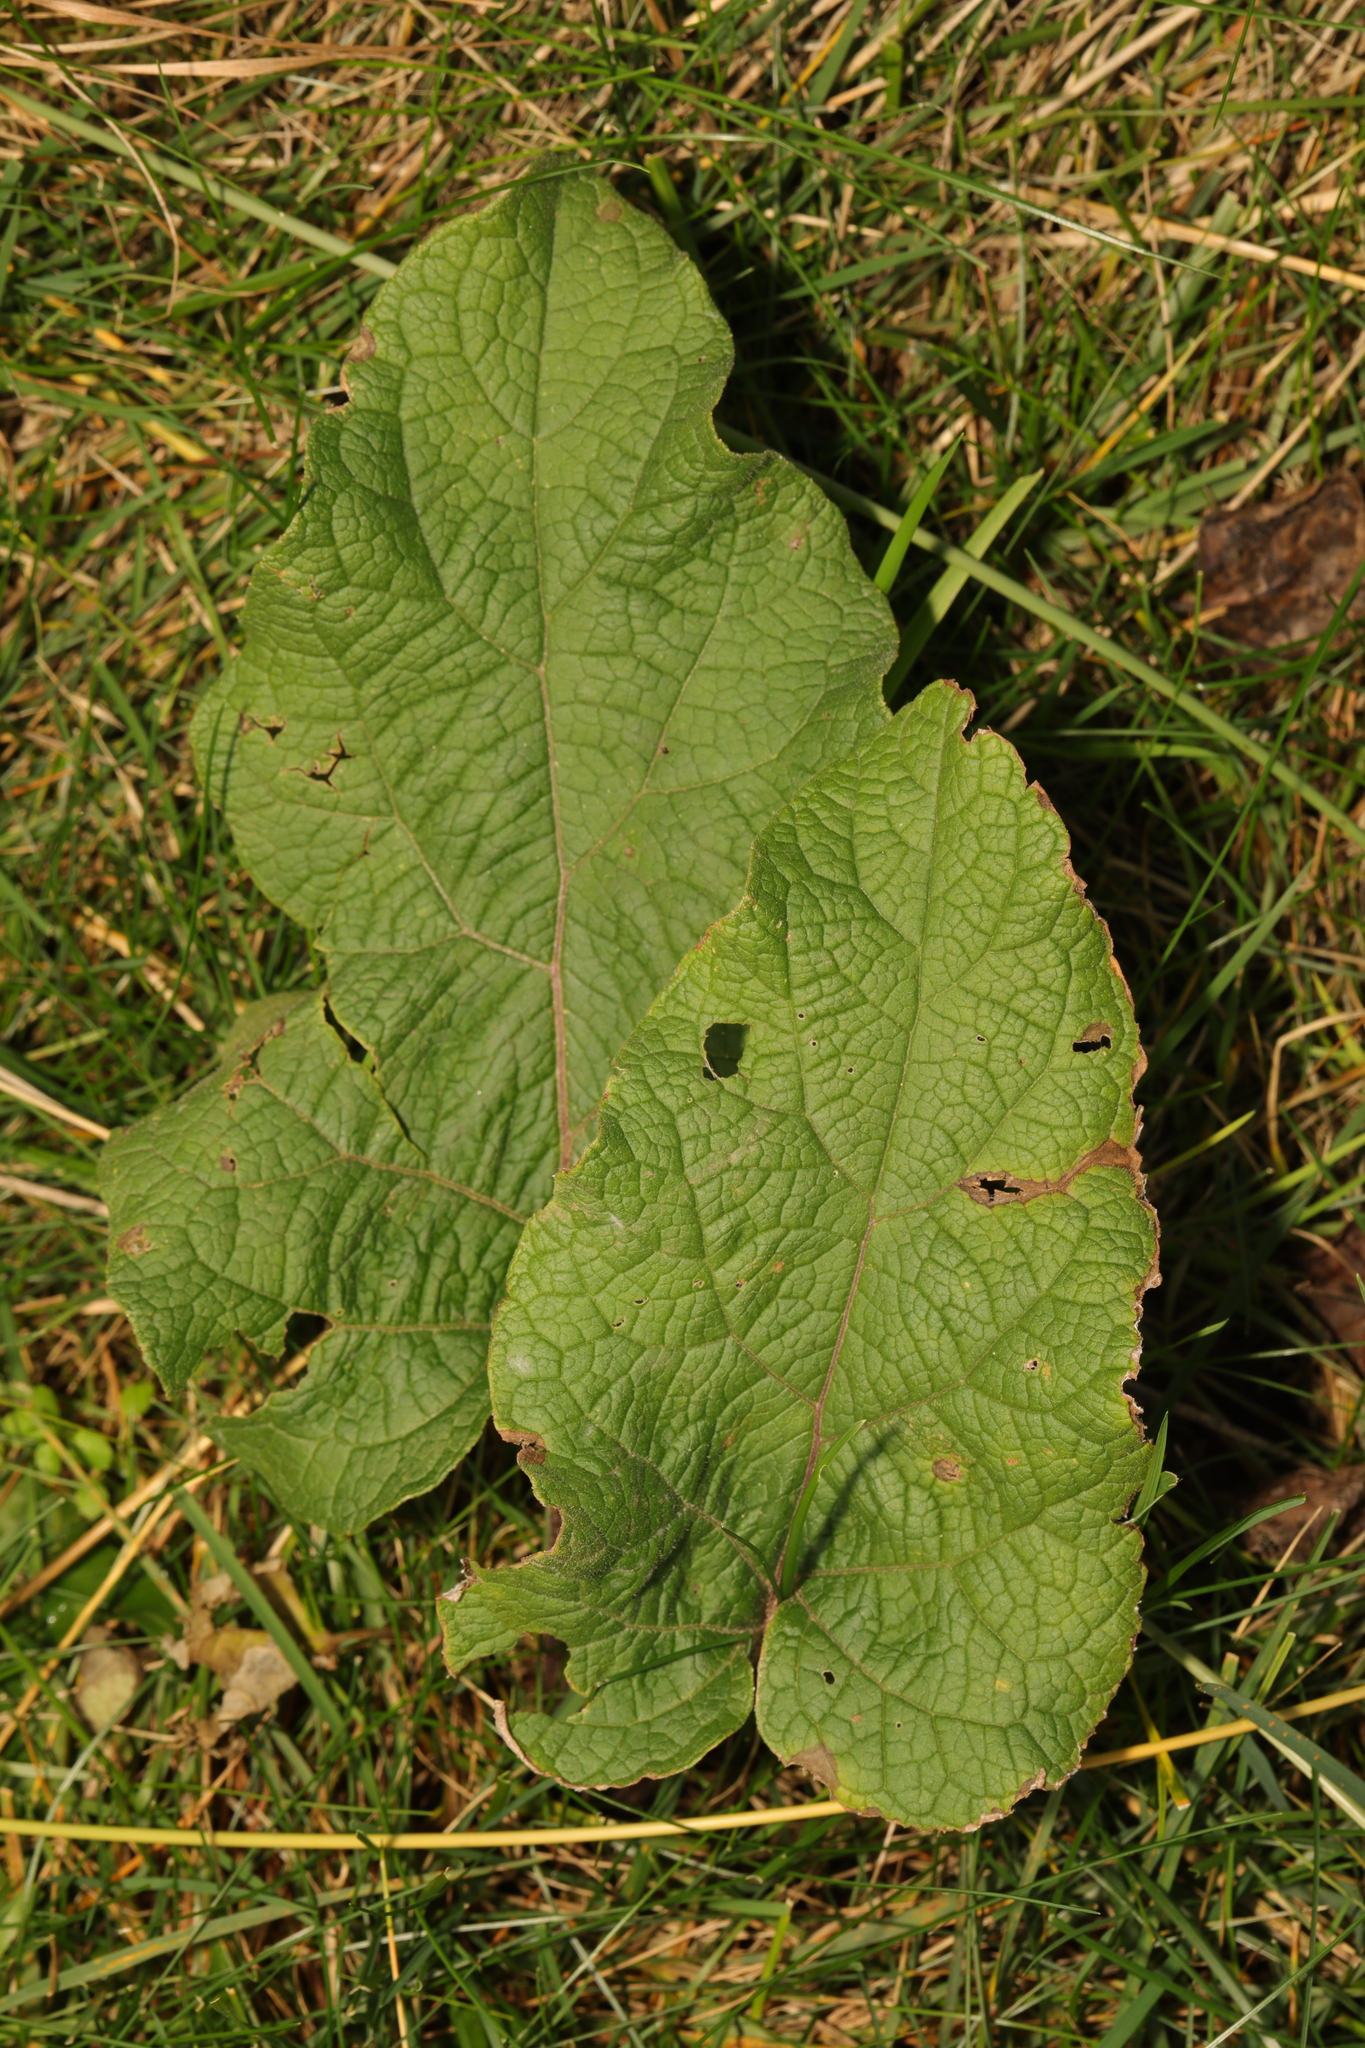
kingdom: Plantae
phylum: Tracheophyta
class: Magnoliopsida
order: Asterales
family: Asteraceae
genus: Arctium
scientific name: Arctium minus
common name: Lesser burdock
